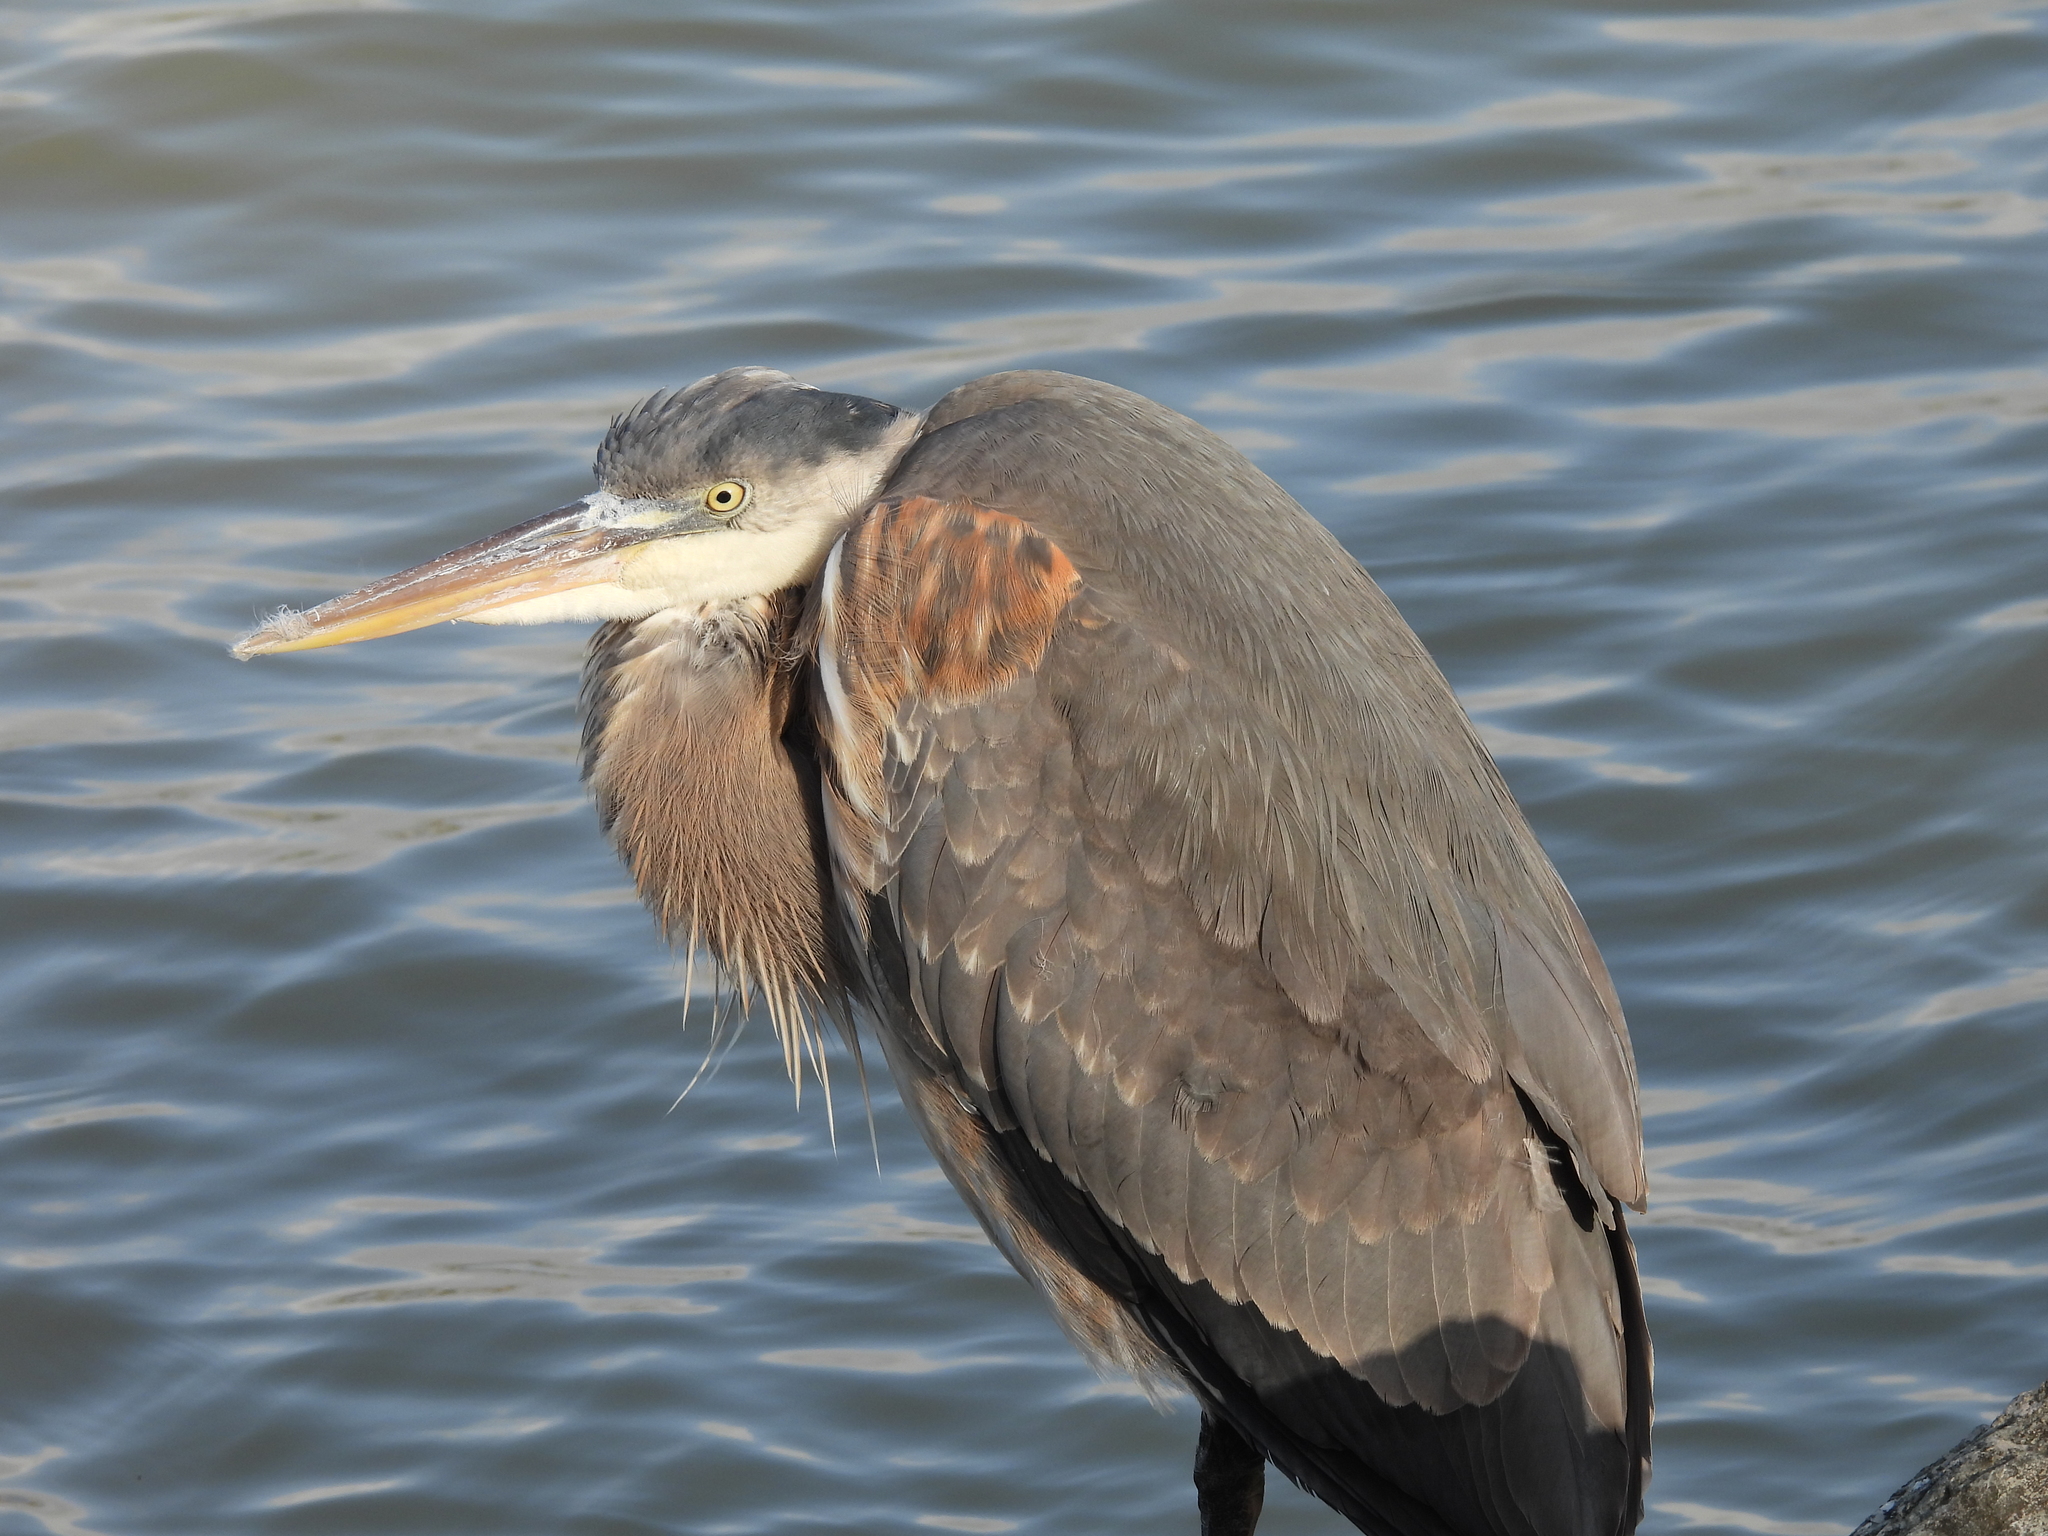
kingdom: Animalia
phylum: Chordata
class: Aves
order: Pelecaniformes
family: Ardeidae
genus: Ardea
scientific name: Ardea herodias
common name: Great blue heron
